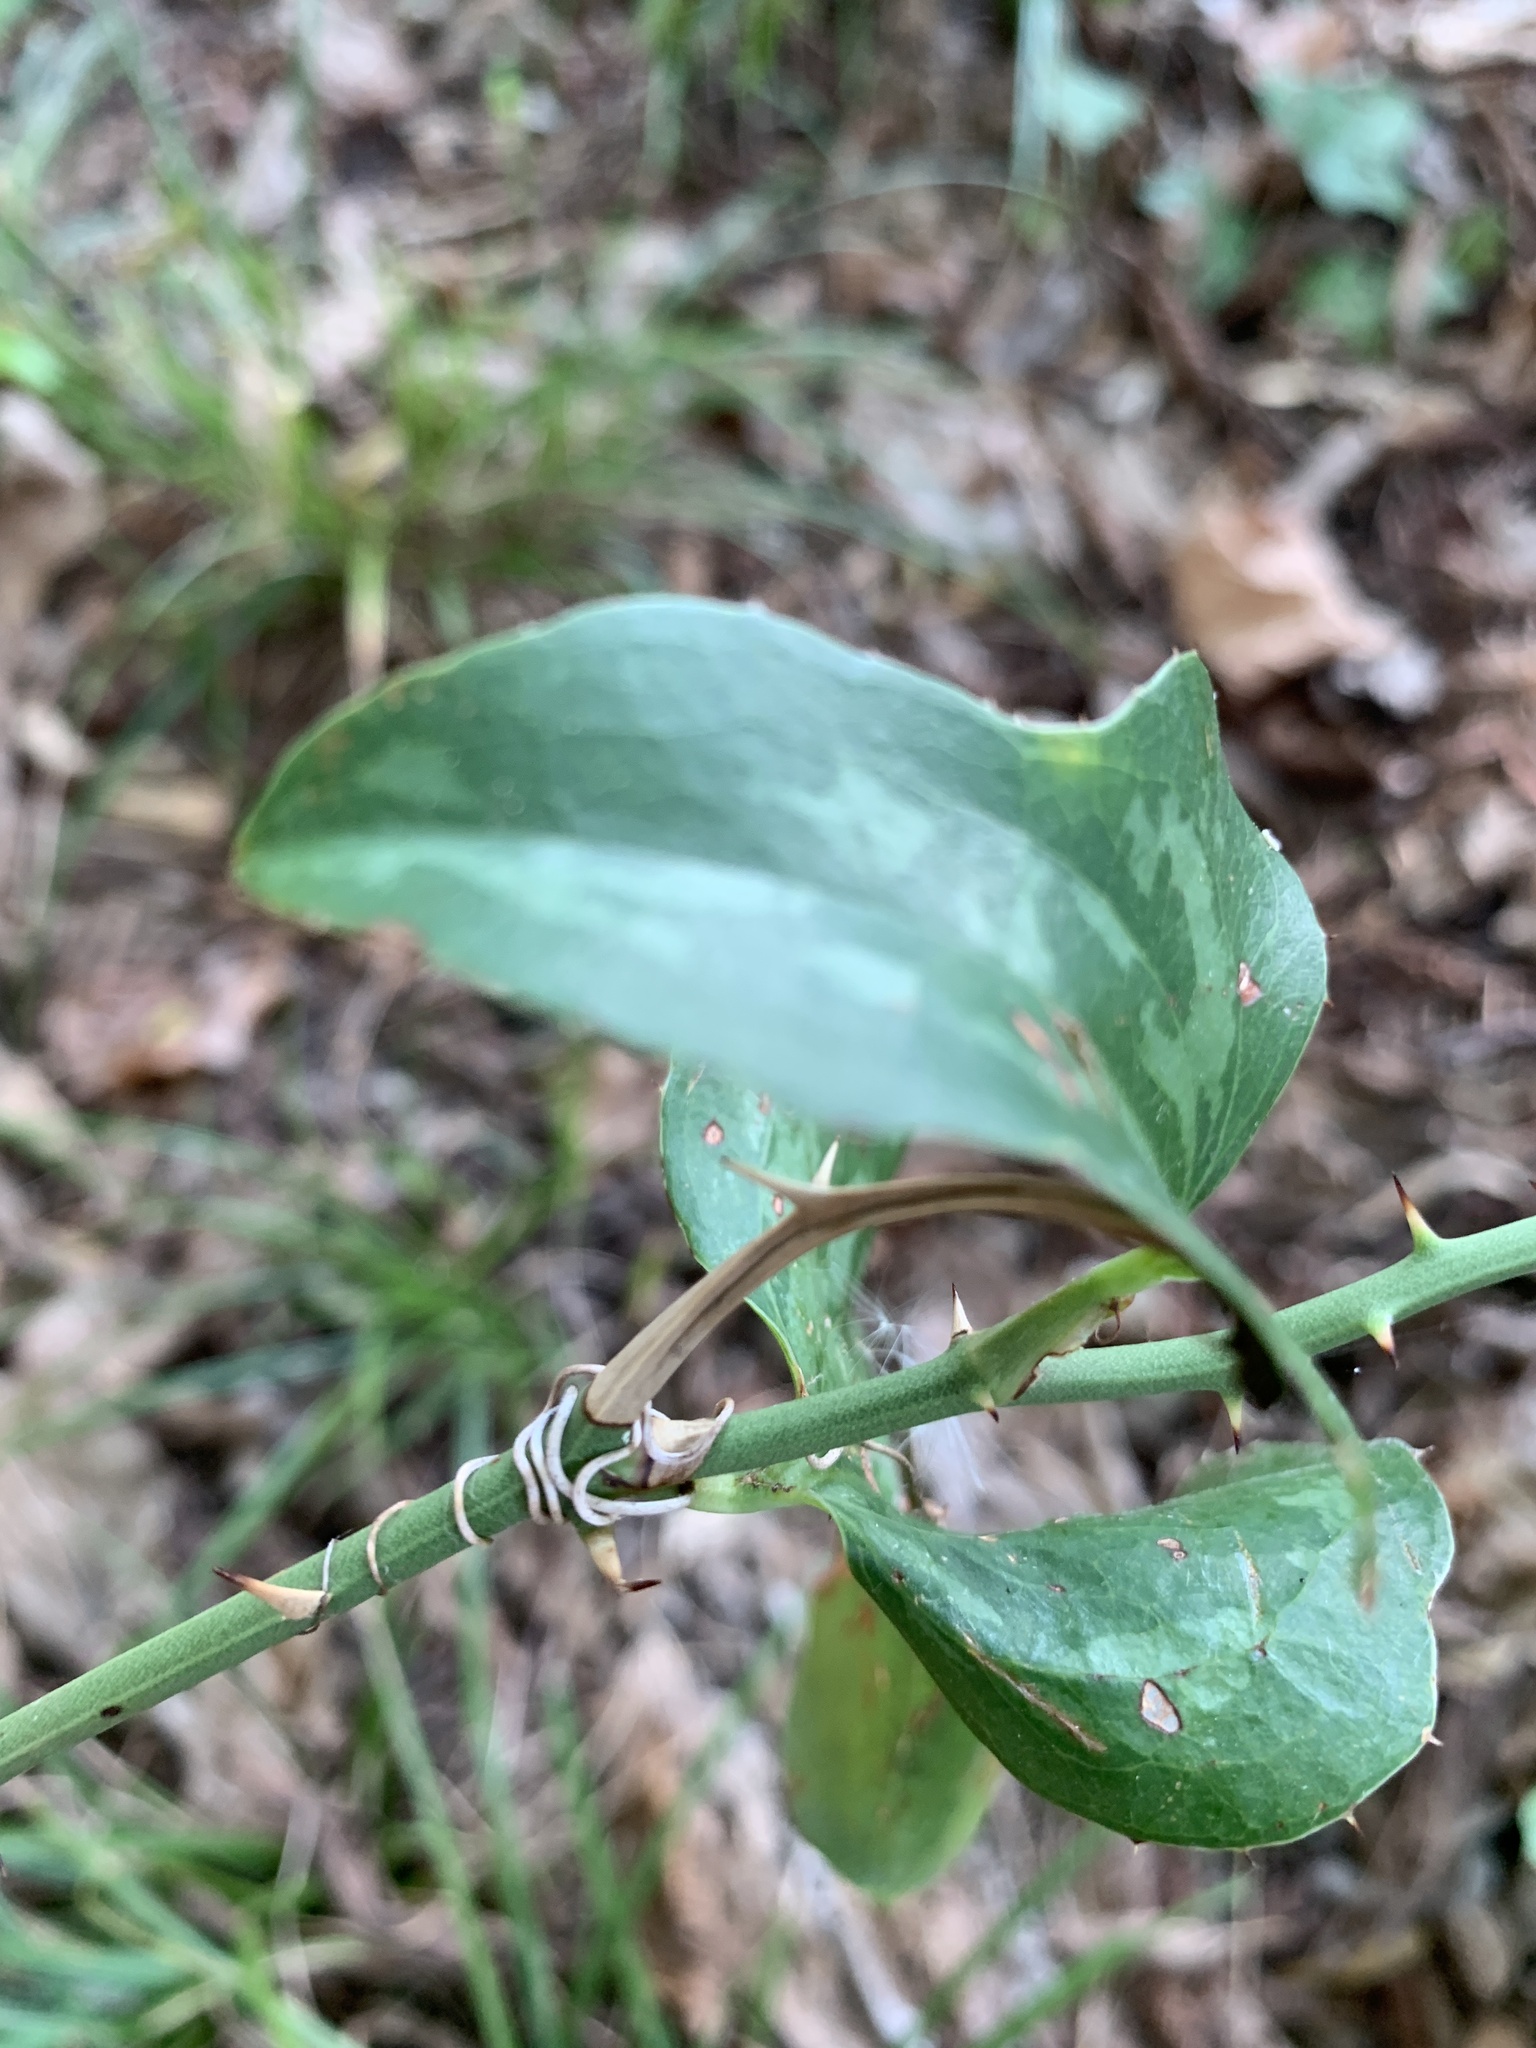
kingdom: Plantae
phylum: Tracheophyta
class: Liliopsida
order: Liliales
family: Smilacaceae
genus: Smilax
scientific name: Smilax bona-nox
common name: Catbrier
